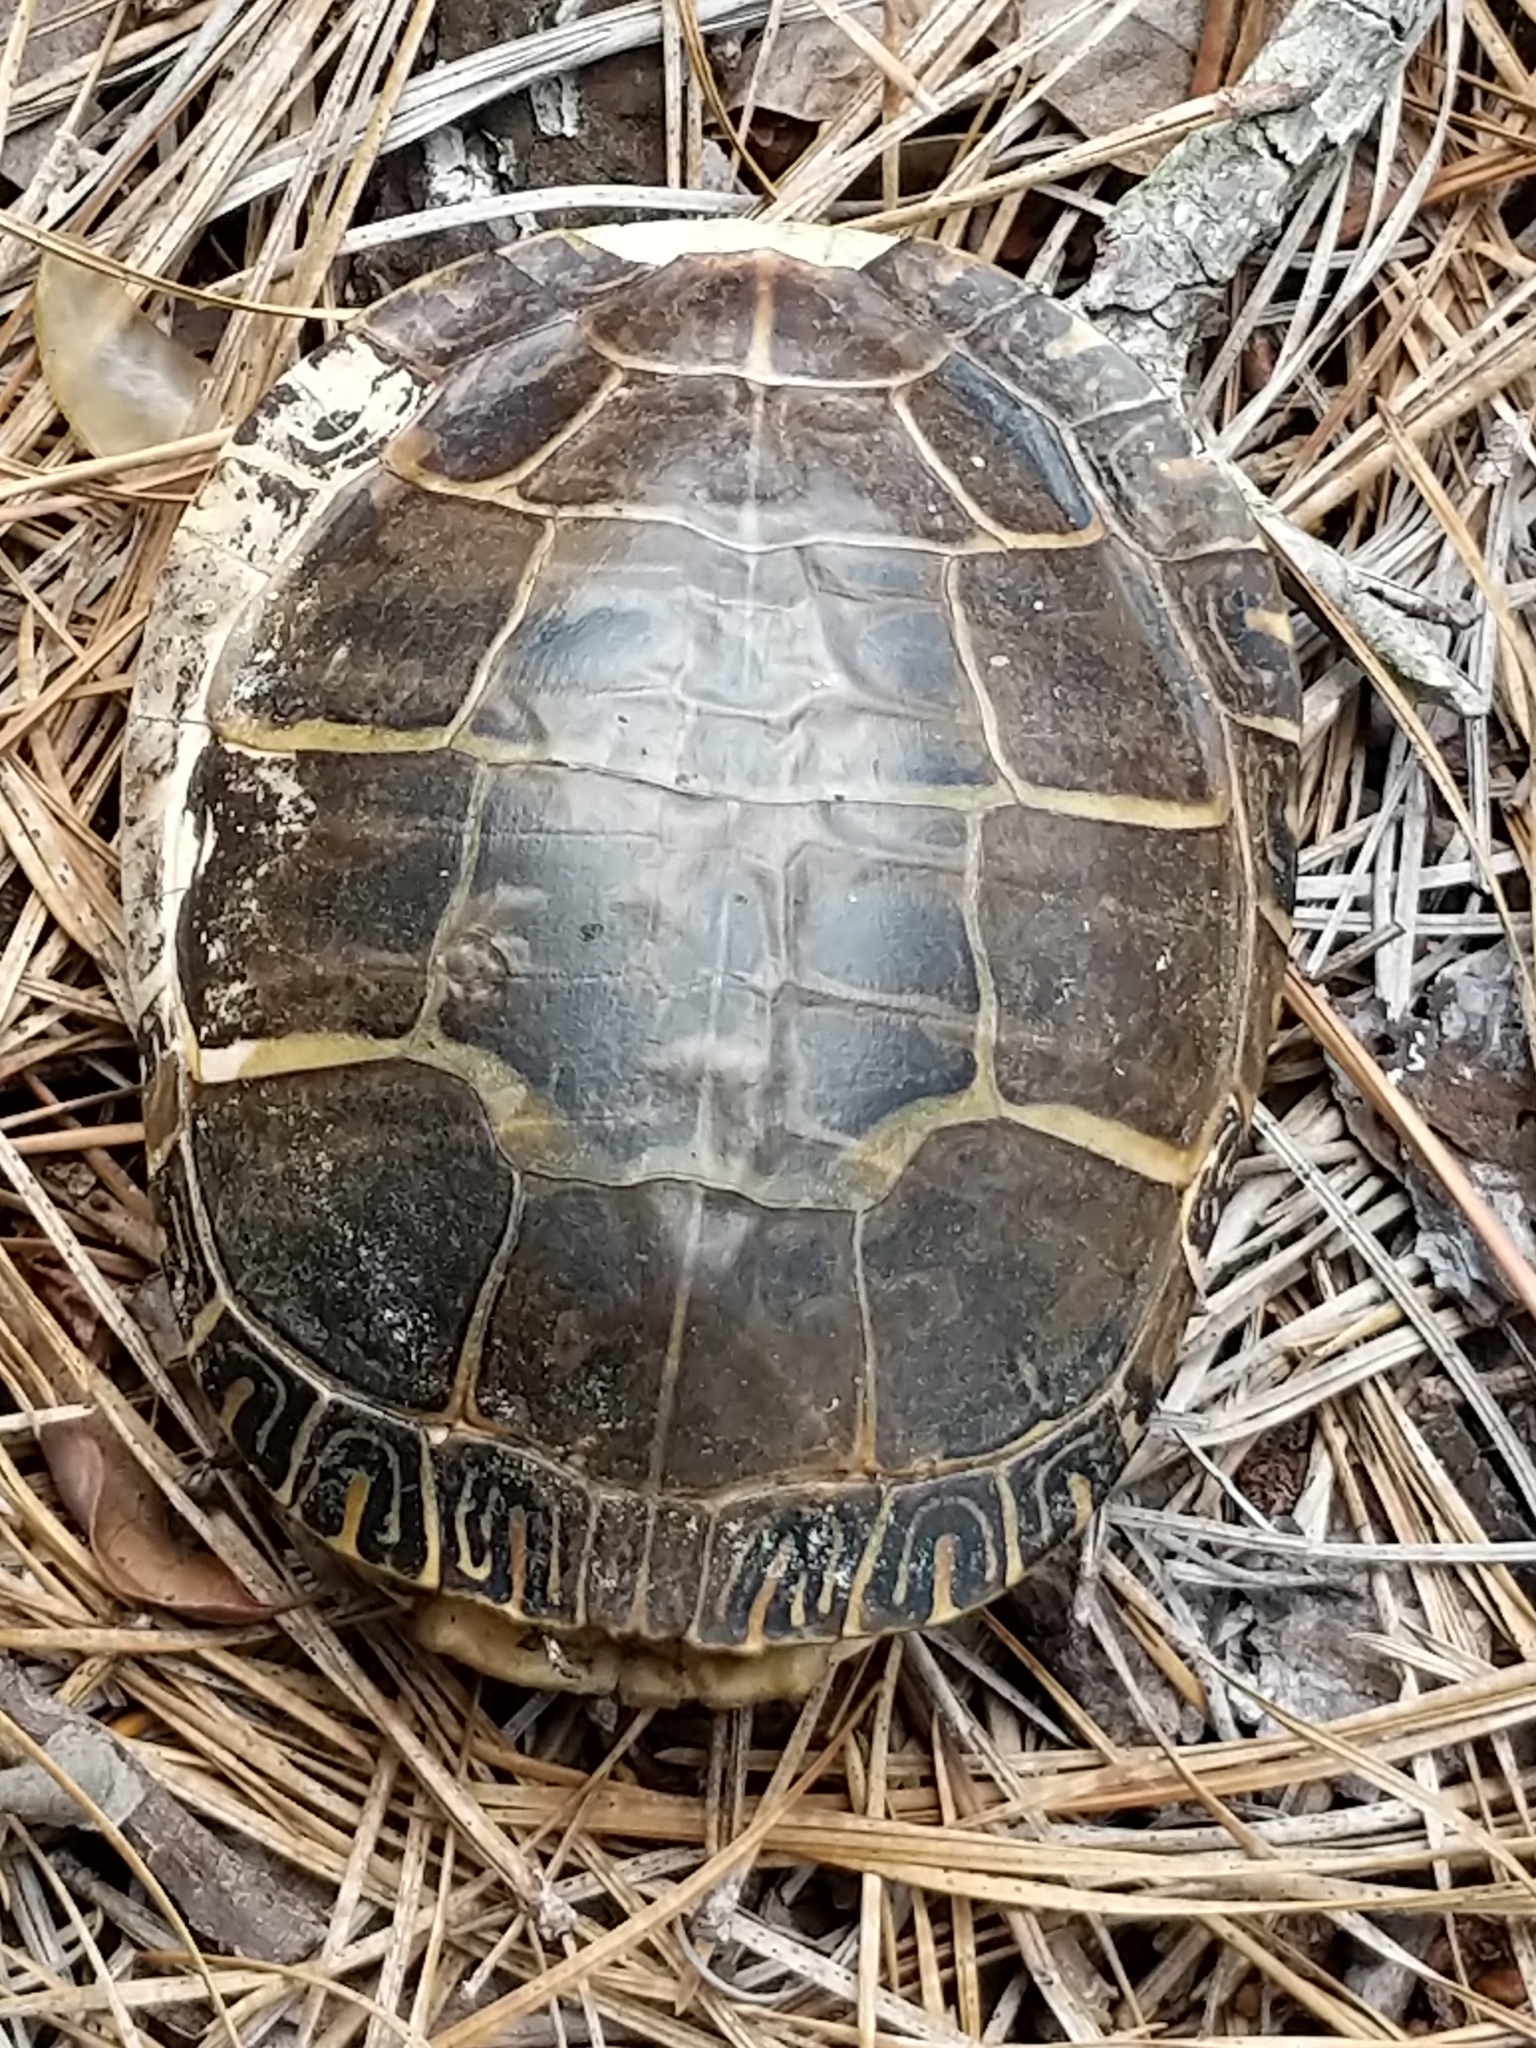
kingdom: Animalia
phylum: Chordata
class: Testudines
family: Emydidae
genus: Chrysemys
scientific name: Chrysemys picta
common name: Painted turtle
